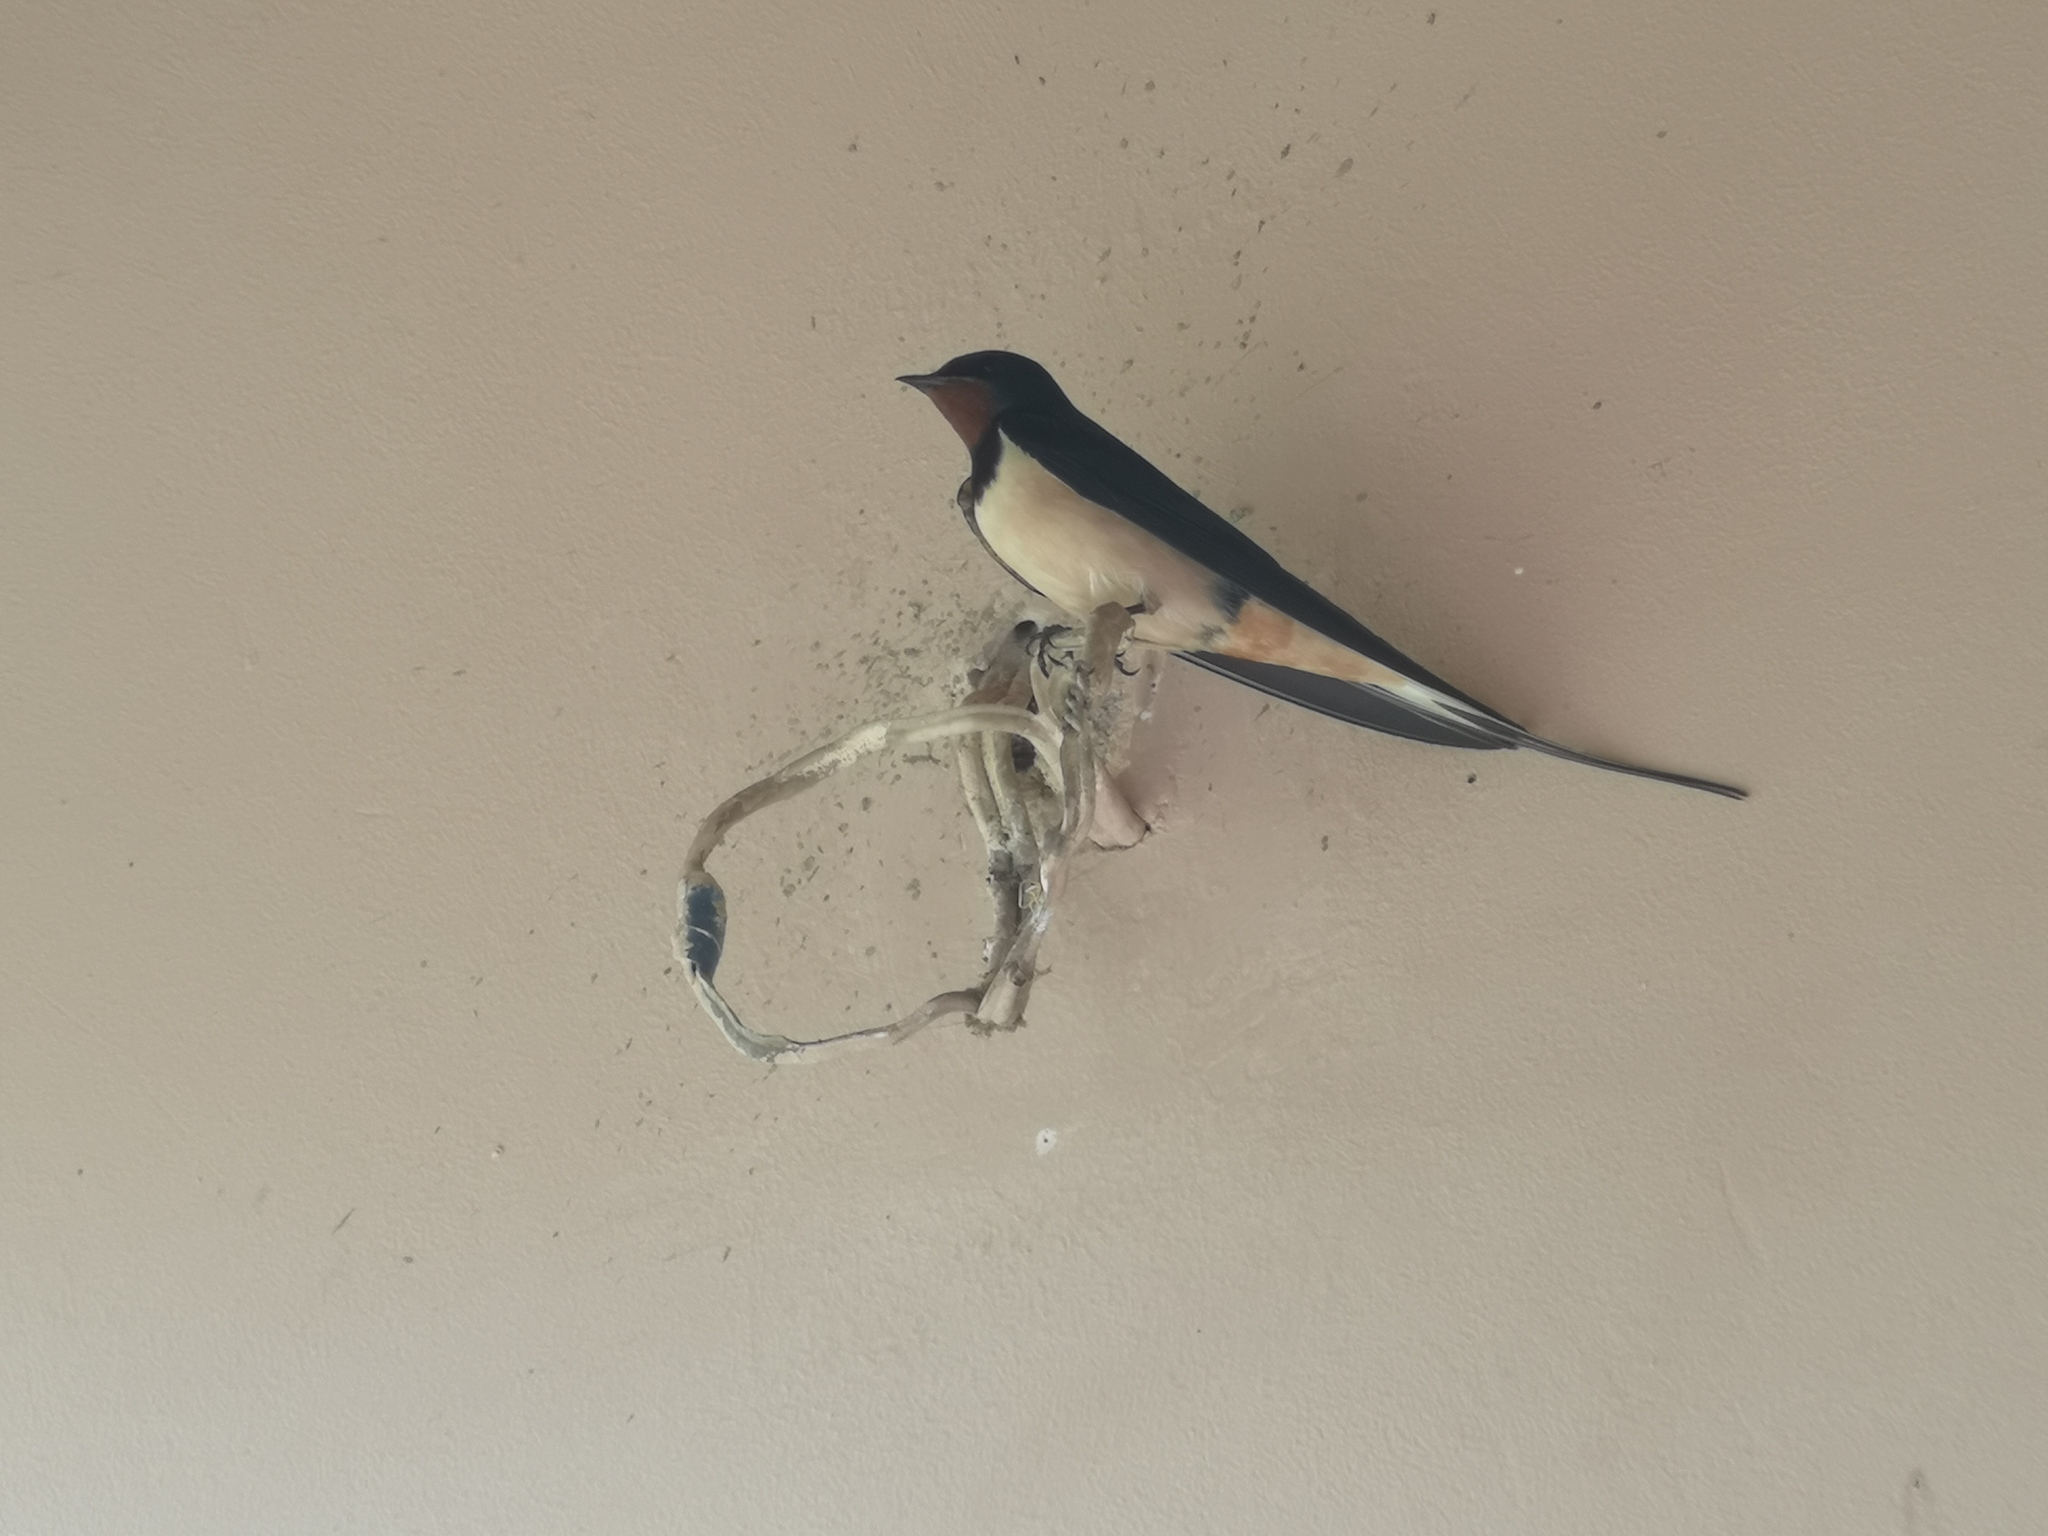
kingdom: Animalia
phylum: Chordata
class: Aves
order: Passeriformes
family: Hirundinidae
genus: Hirundo
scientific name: Hirundo rustica
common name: Barn swallow
